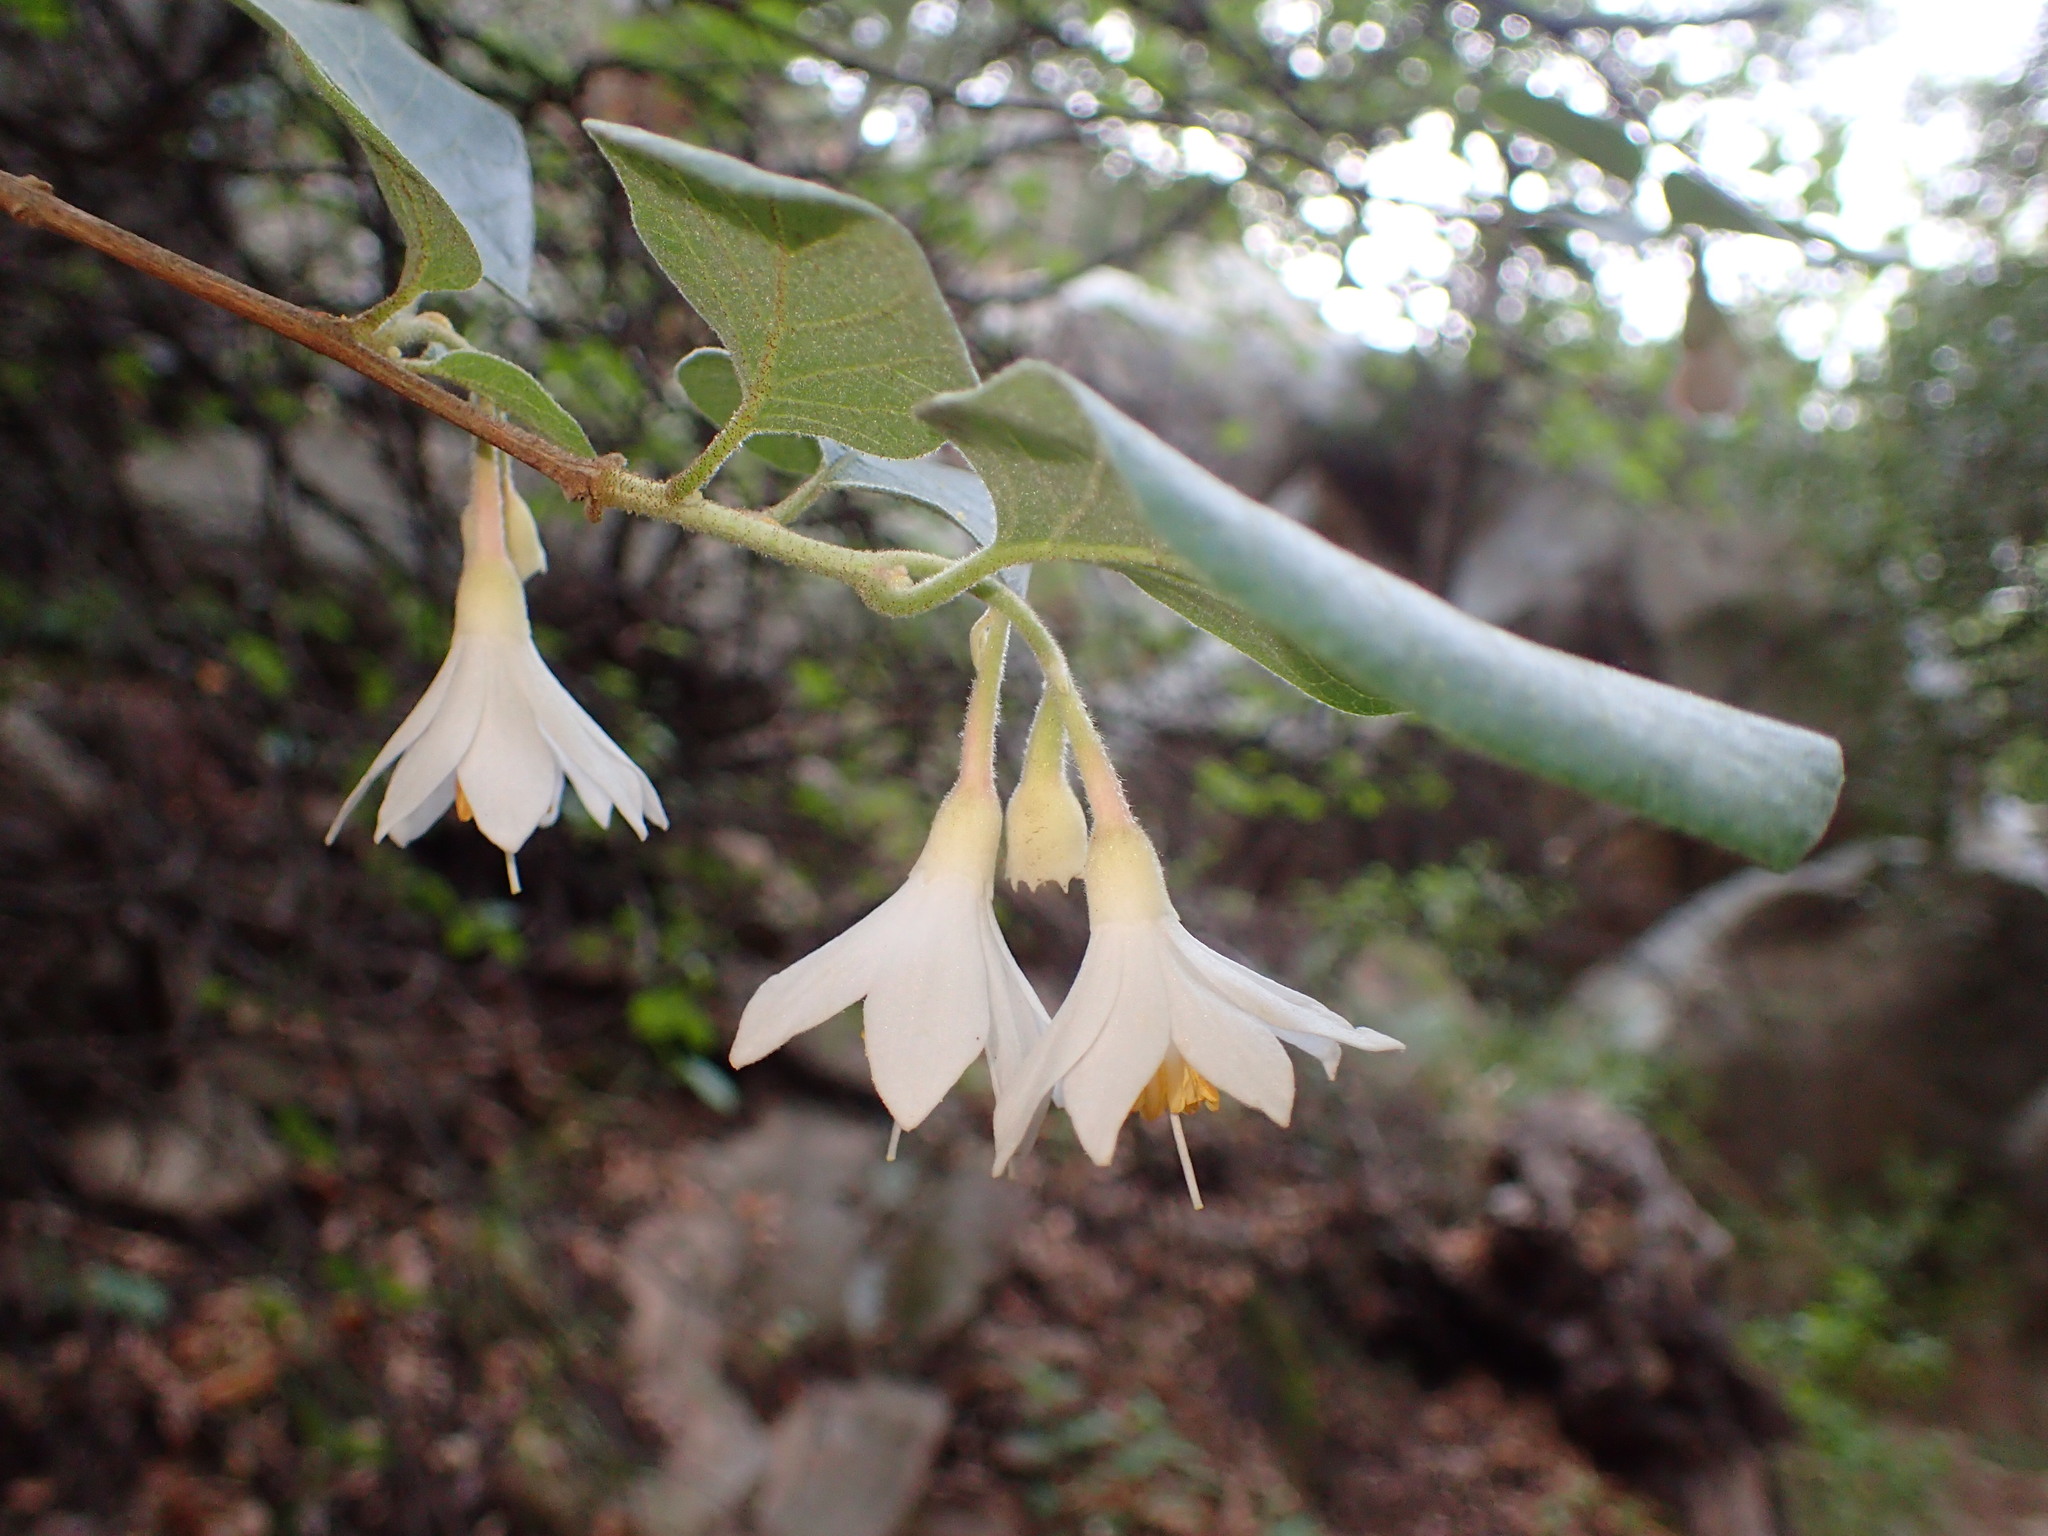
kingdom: Plantae
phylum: Tracheophyta
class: Magnoliopsida
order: Ericales
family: Styracaceae
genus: Styrax
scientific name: Styrax redivivus
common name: California styrax
